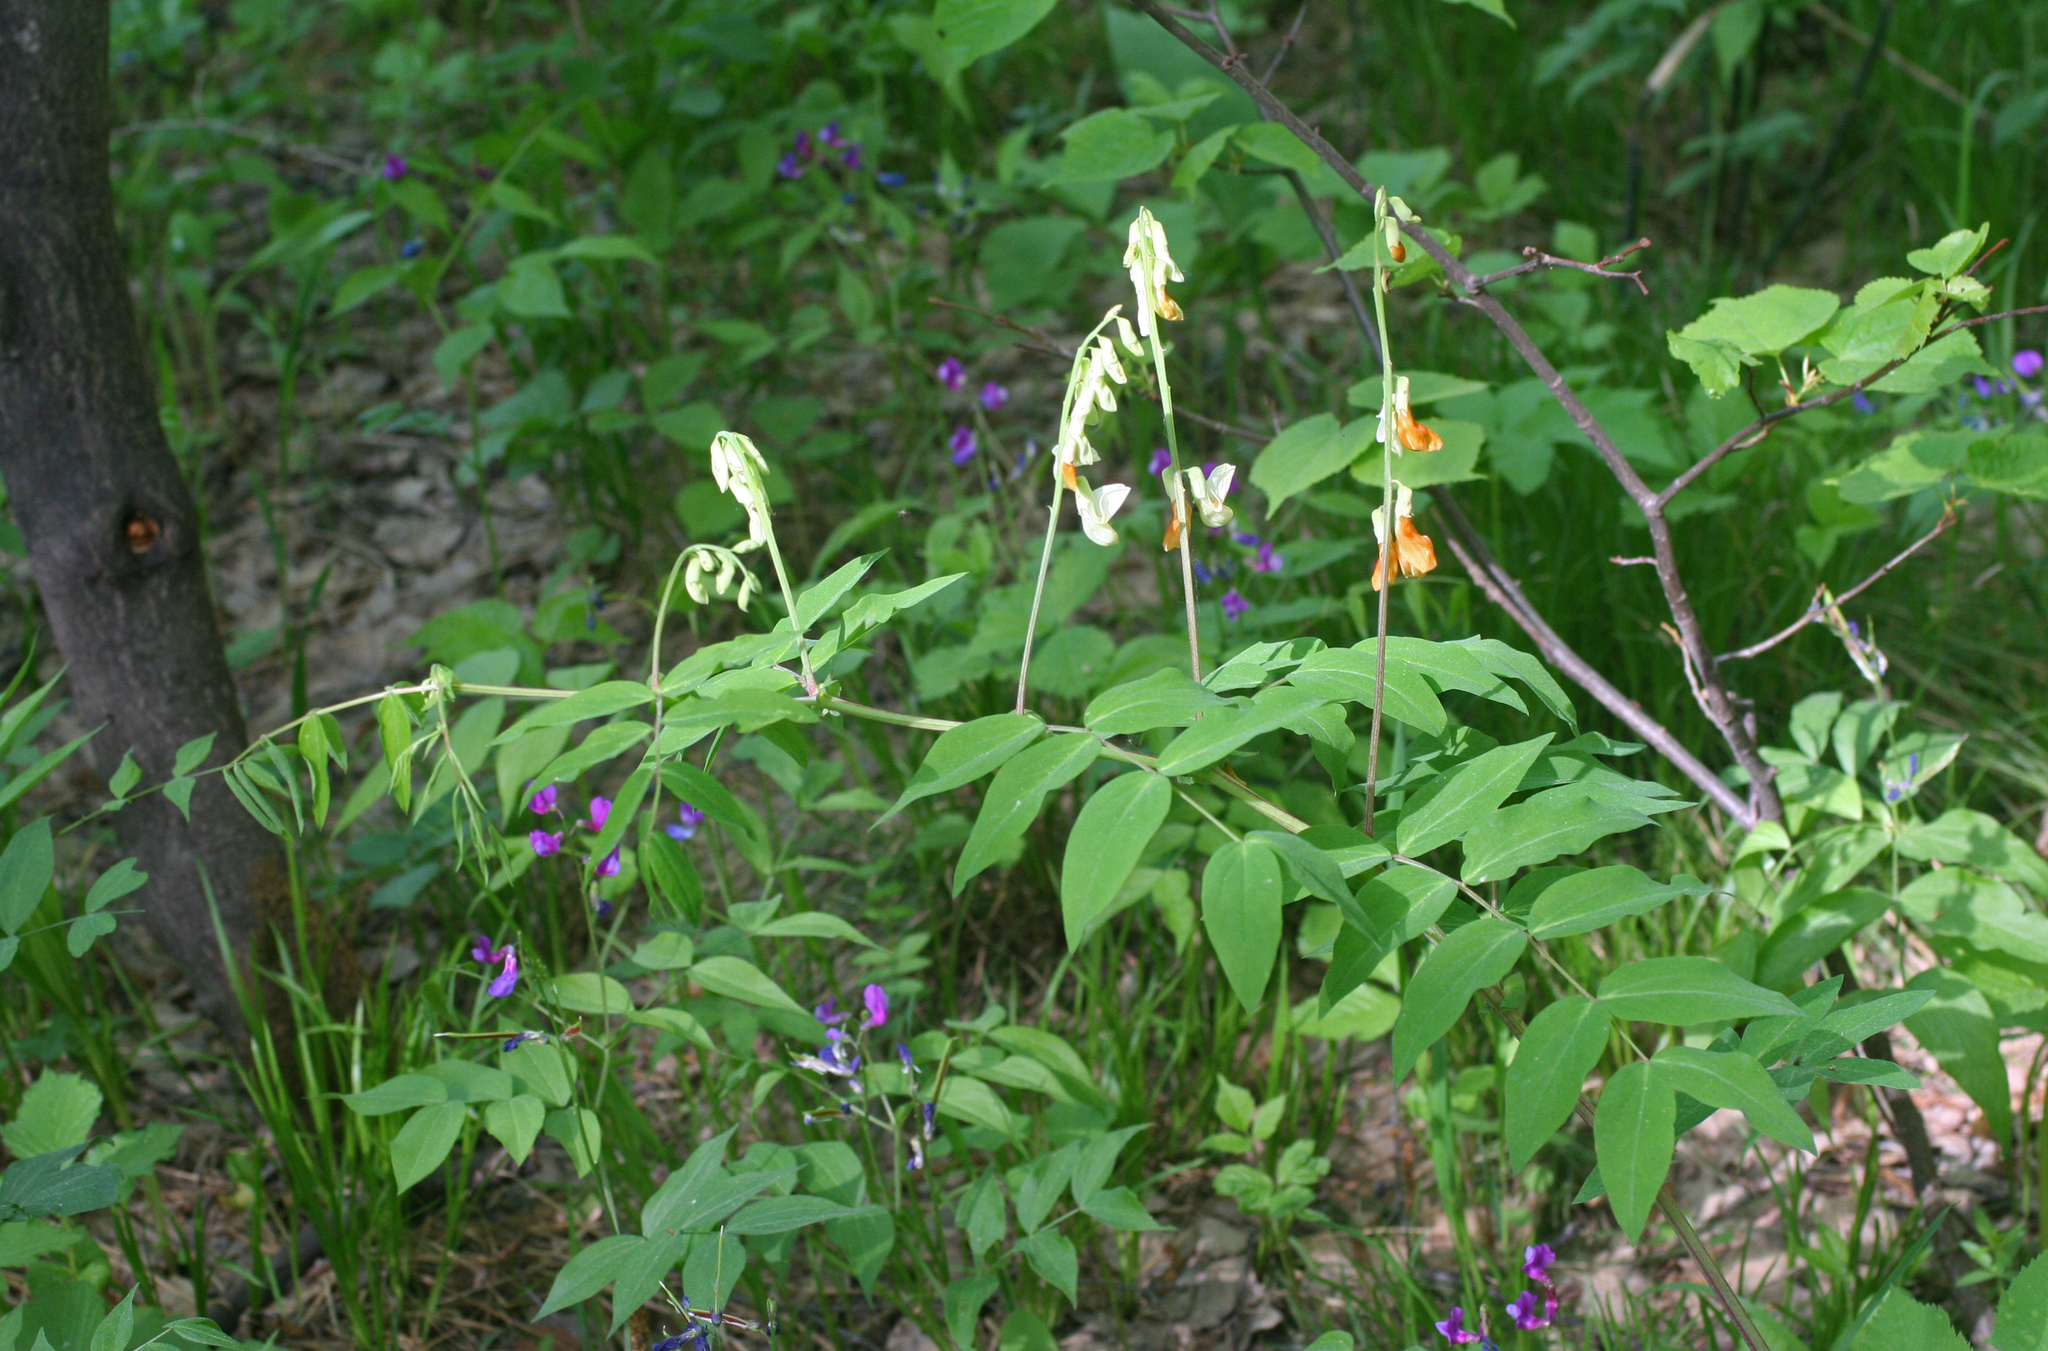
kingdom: Plantae
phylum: Tracheophyta
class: Magnoliopsida
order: Fabales
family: Fabaceae
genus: Lathyrus
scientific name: Lathyrus gmelinii
